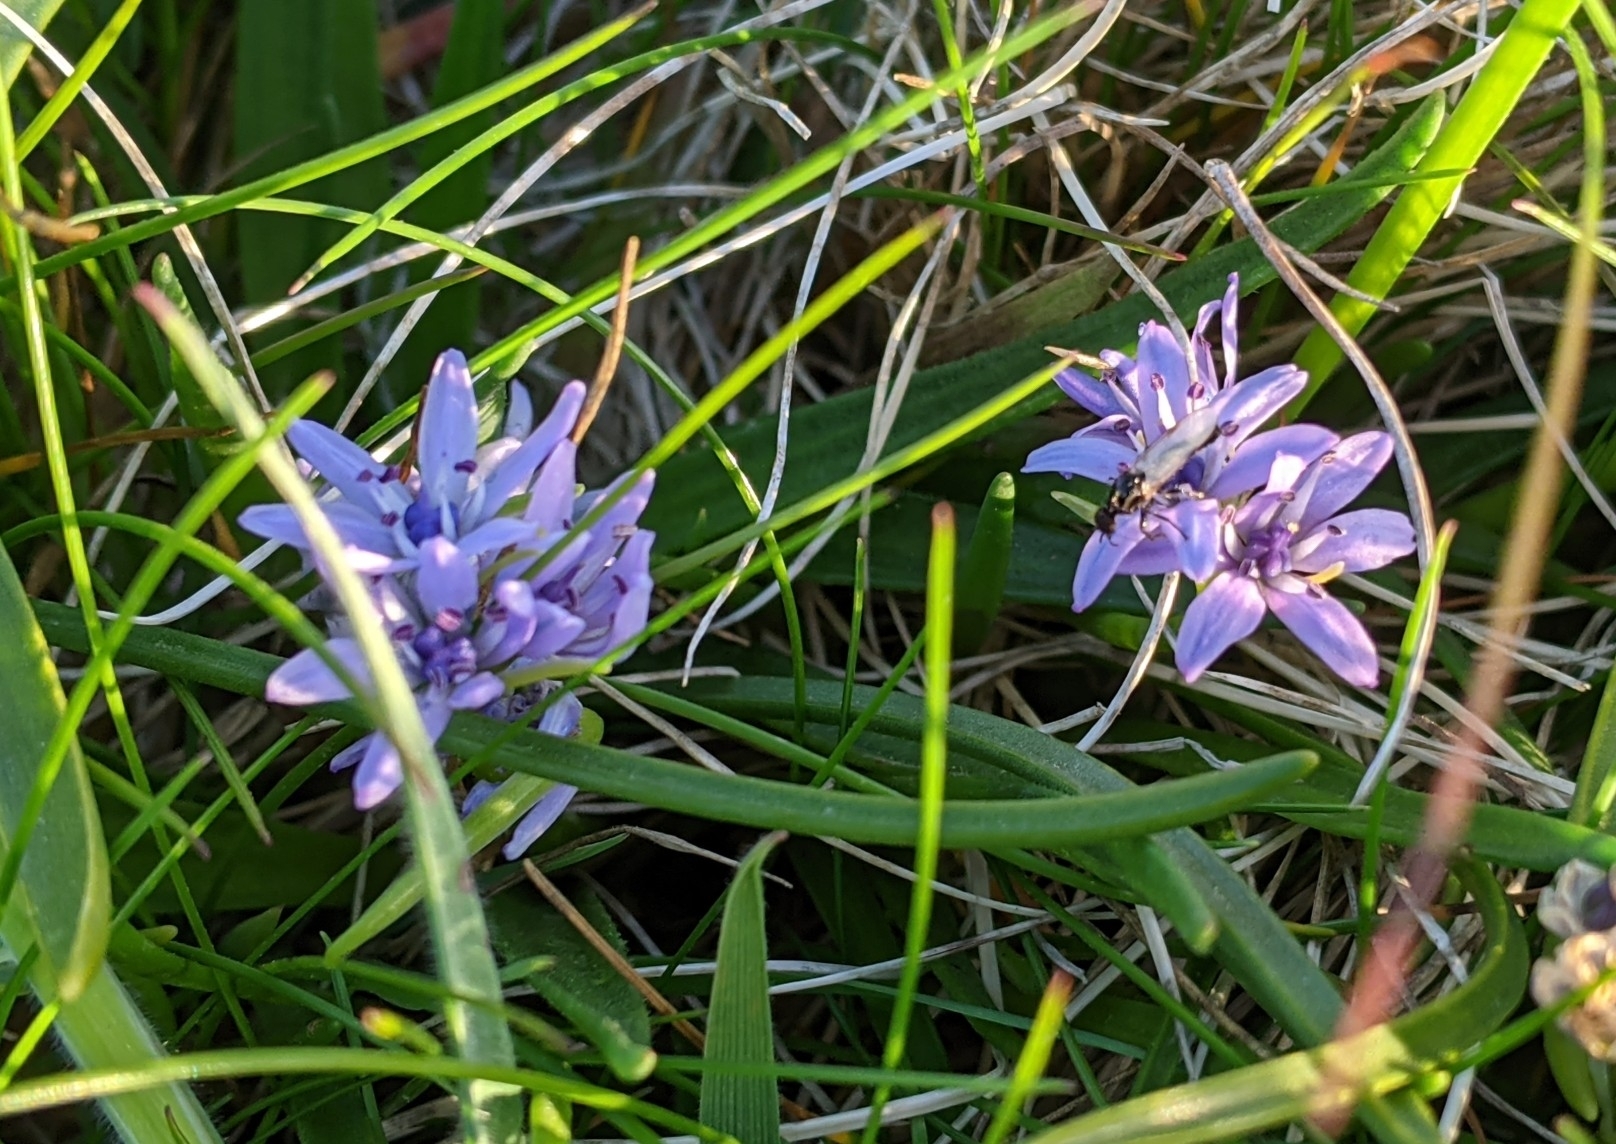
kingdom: Plantae
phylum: Tracheophyta
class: Liliopsida
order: Asparagales
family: Asparagaceae
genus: Scilla
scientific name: Scilla verna
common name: Spring squill
